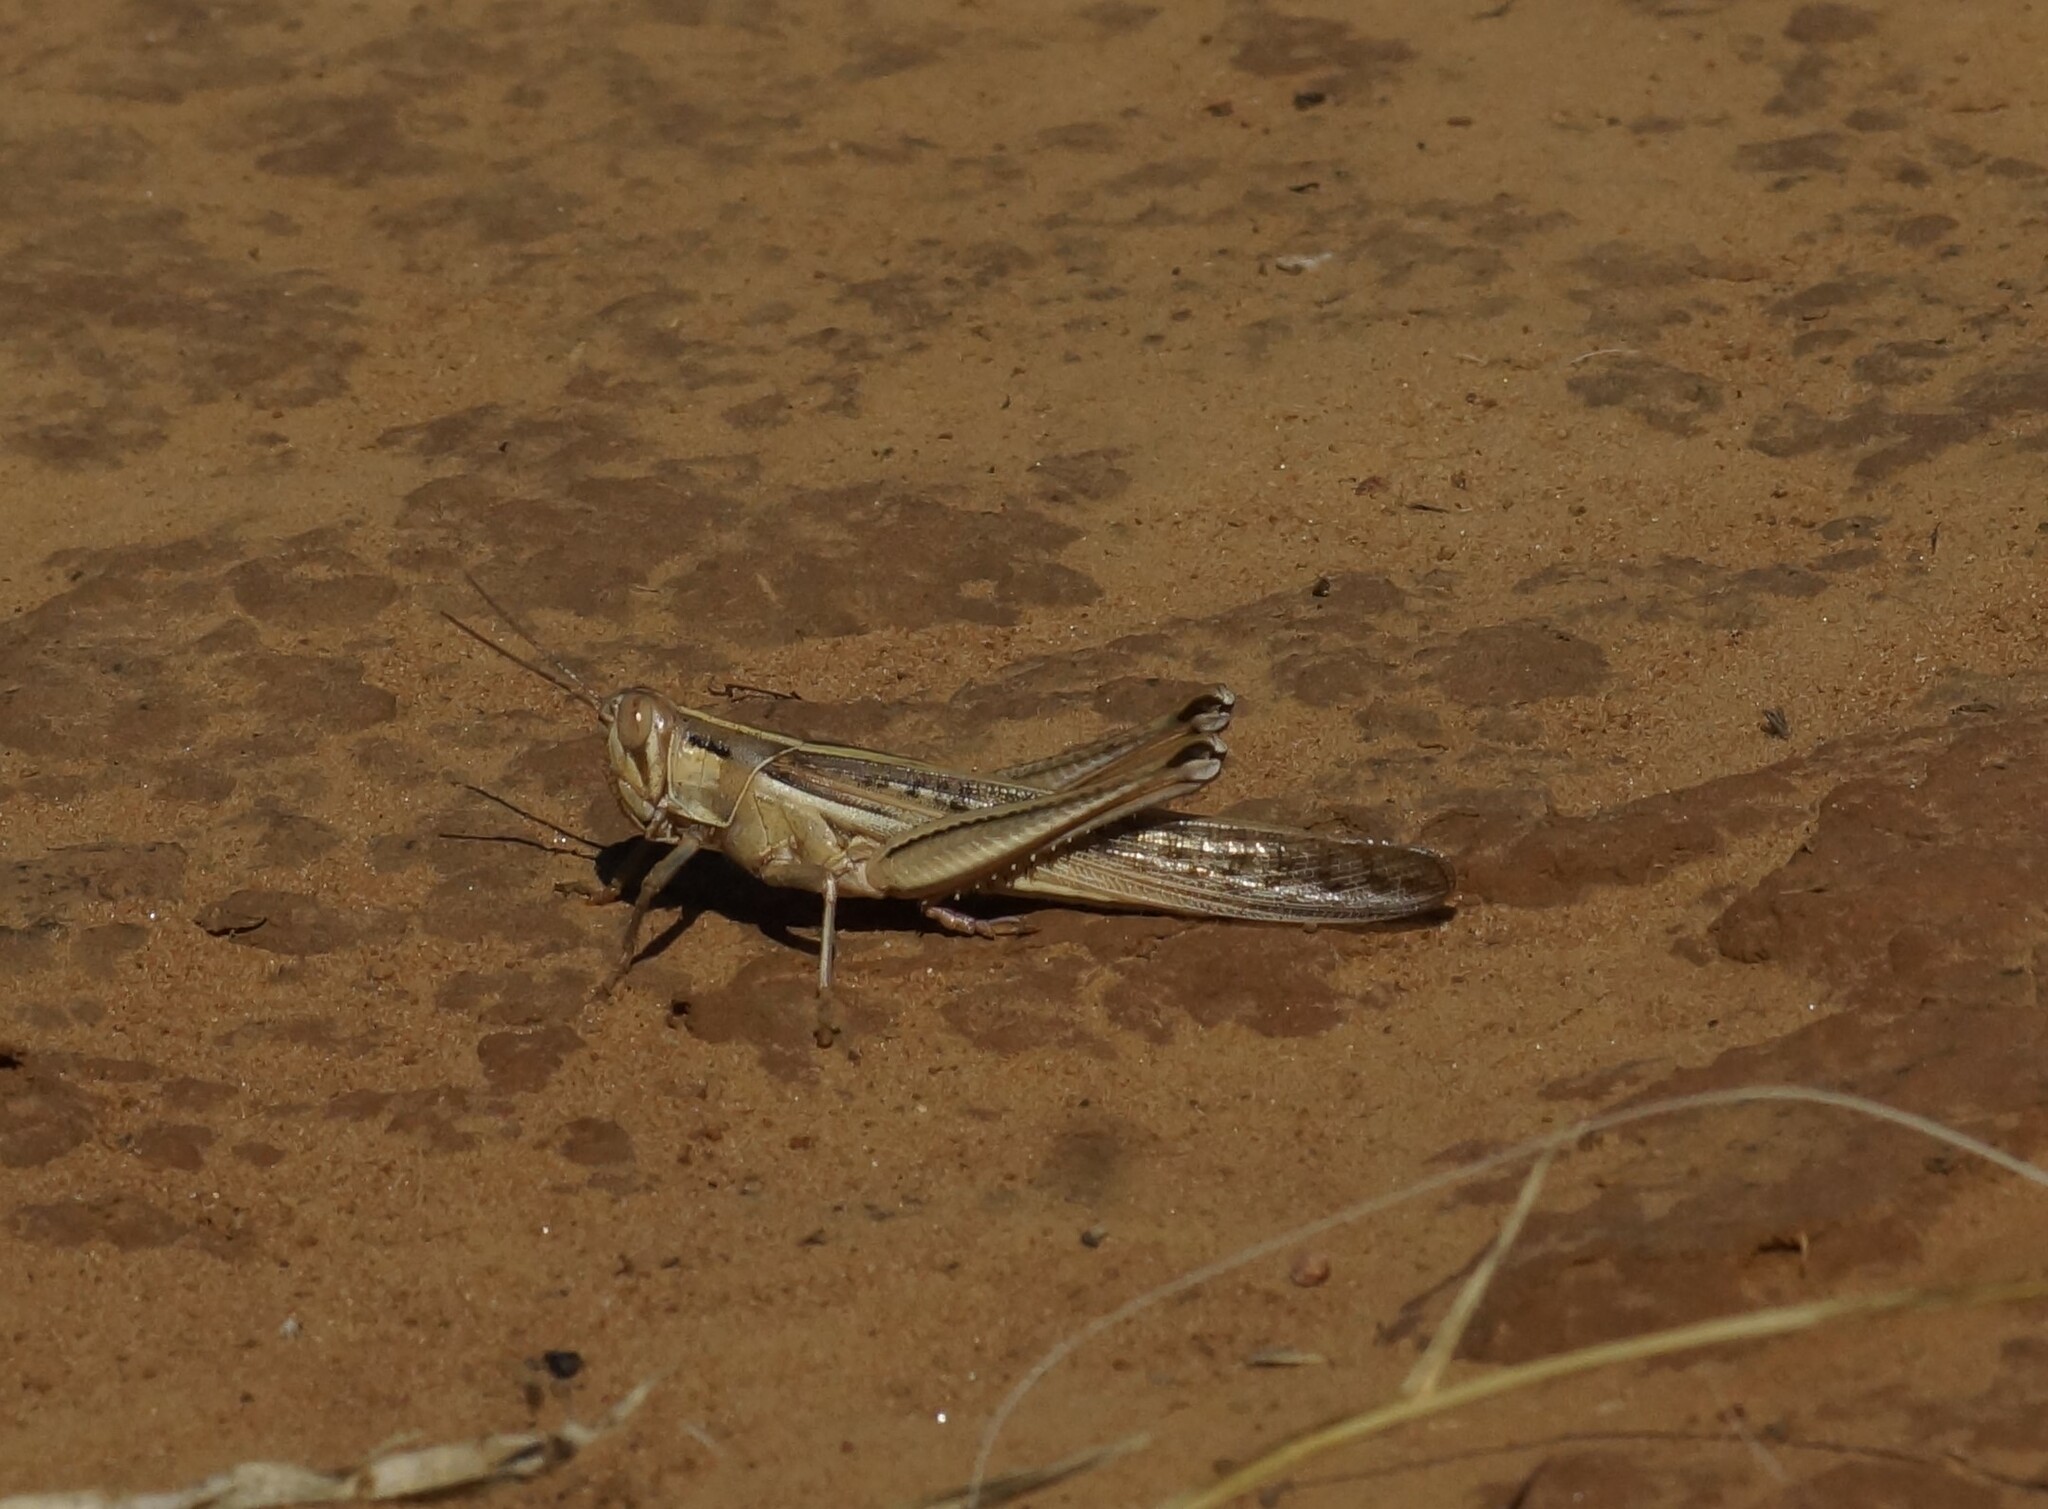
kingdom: Animalia
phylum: Arthropoda
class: Insecta
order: Orthoptera
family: Acrididae
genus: Austracris
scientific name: Austracris guttulosa
